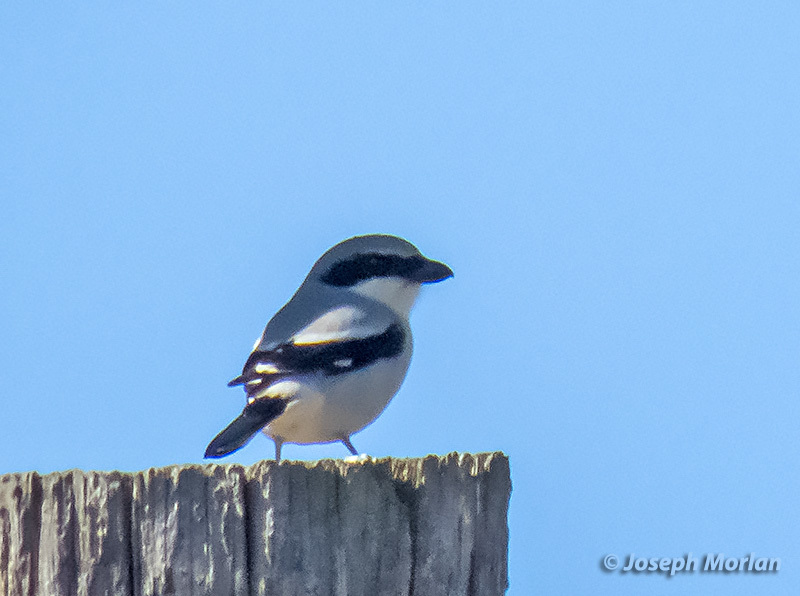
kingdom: Animalia
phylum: Chordata
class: Aves
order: Passeriformes
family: Laniidae
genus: Lanius
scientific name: Lanius ludovicianus
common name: Loggerhead shrike
